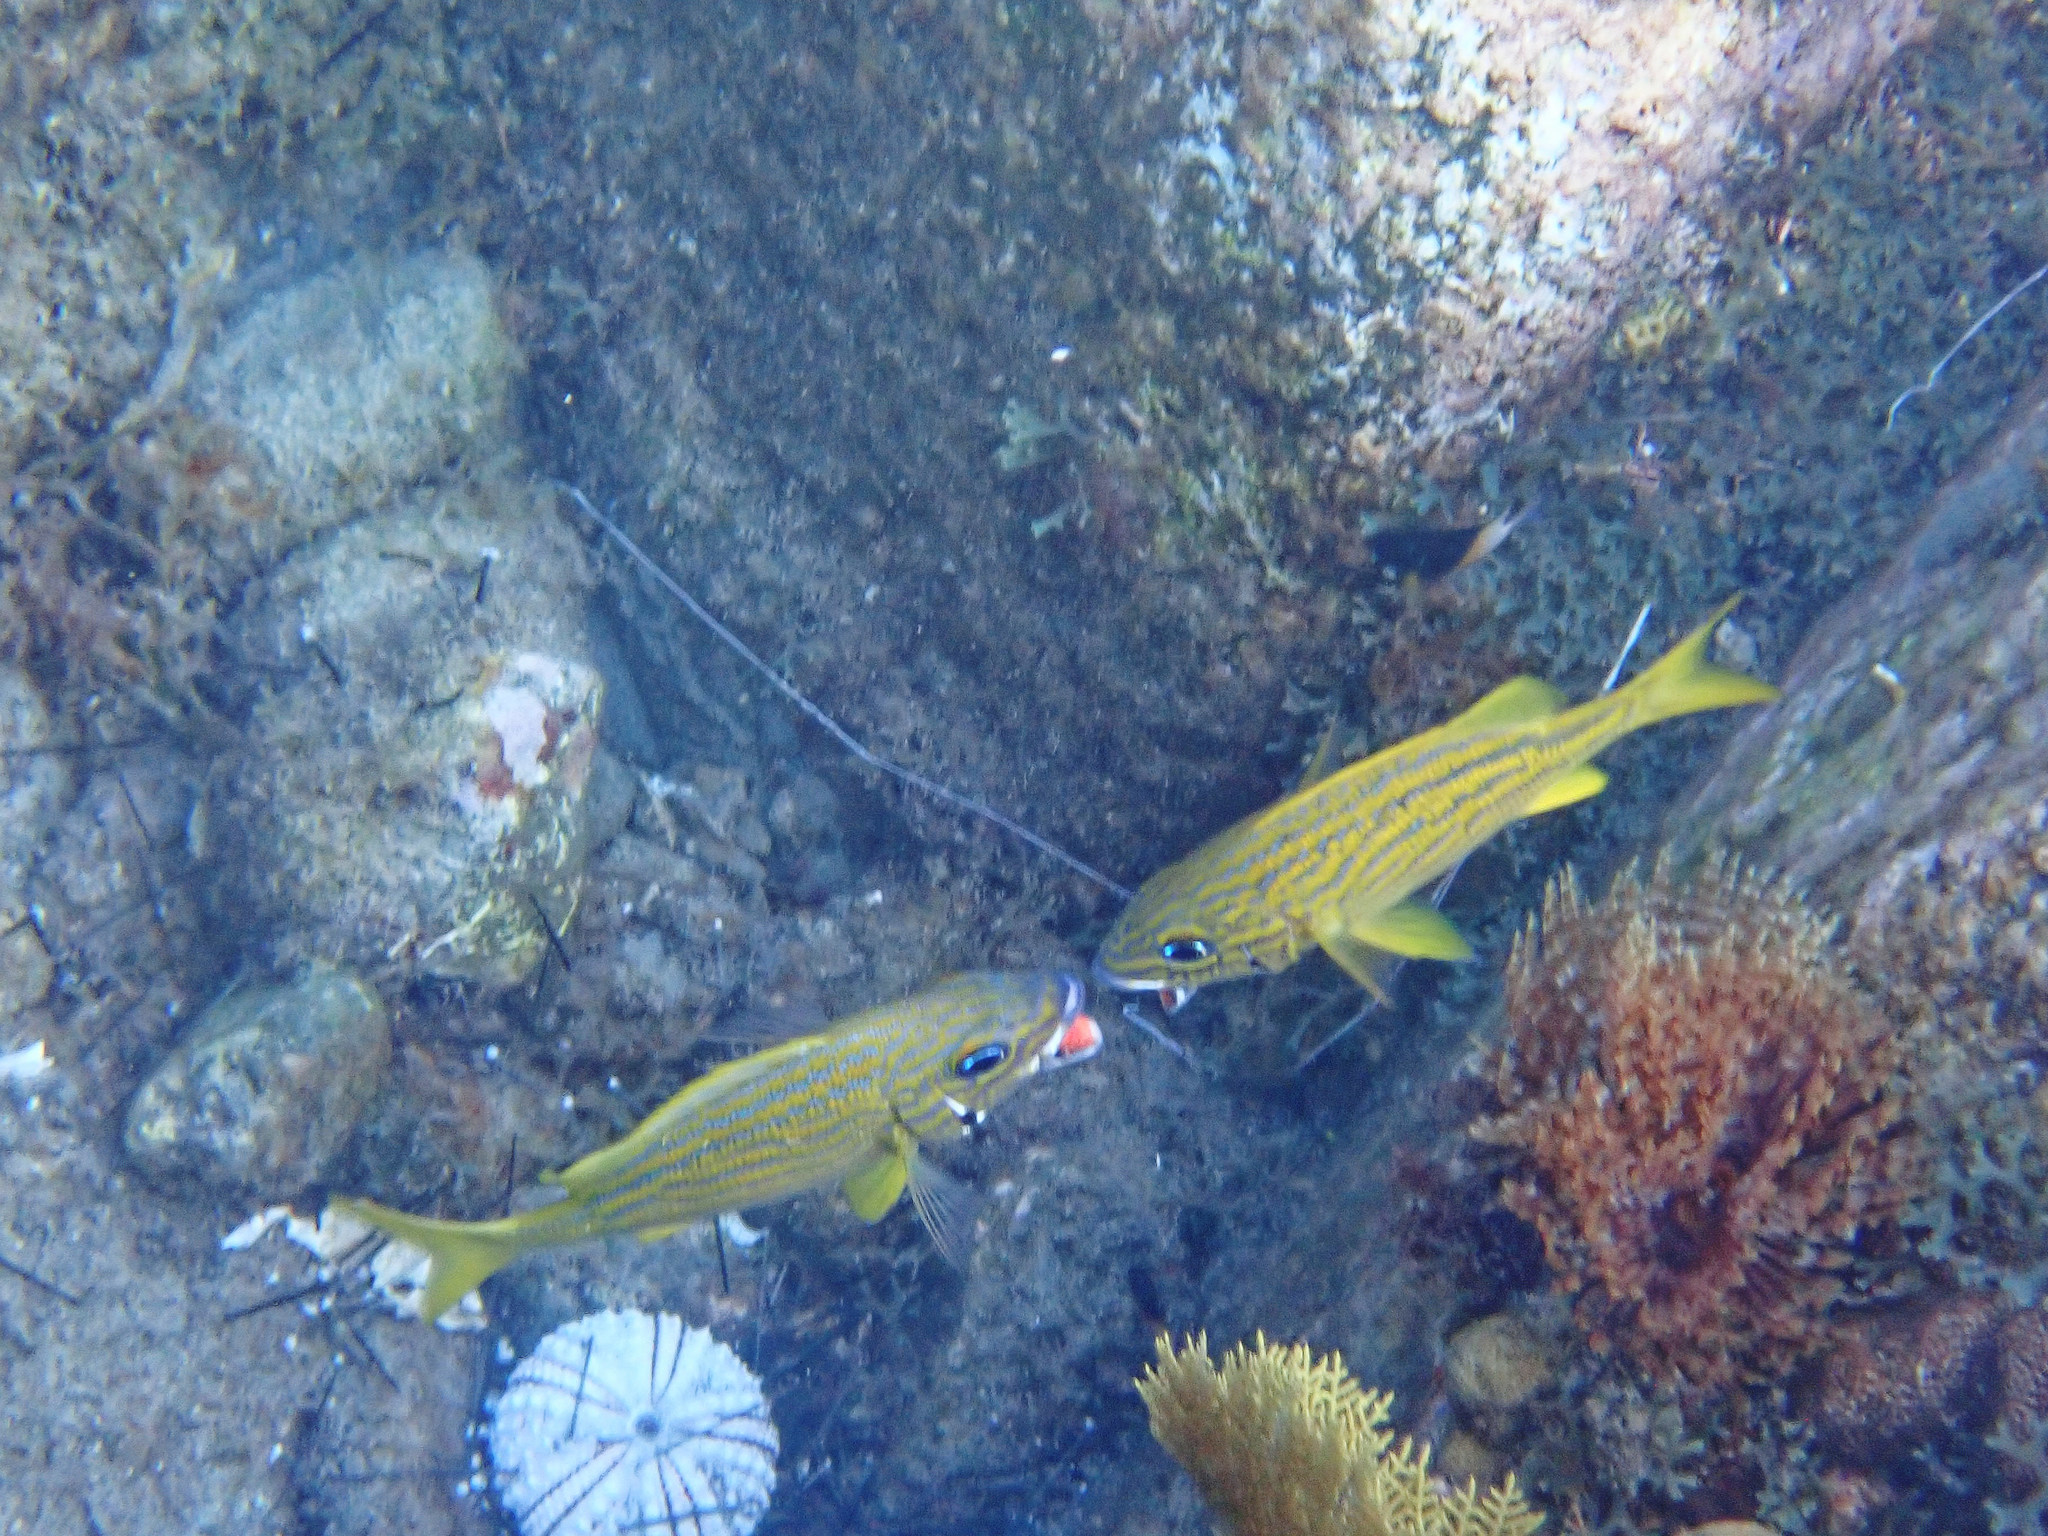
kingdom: Animalia
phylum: Chordata
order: Perciformes
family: Haemulidae
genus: Haemulon
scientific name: Haemulon flavolineatum
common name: French grunt
